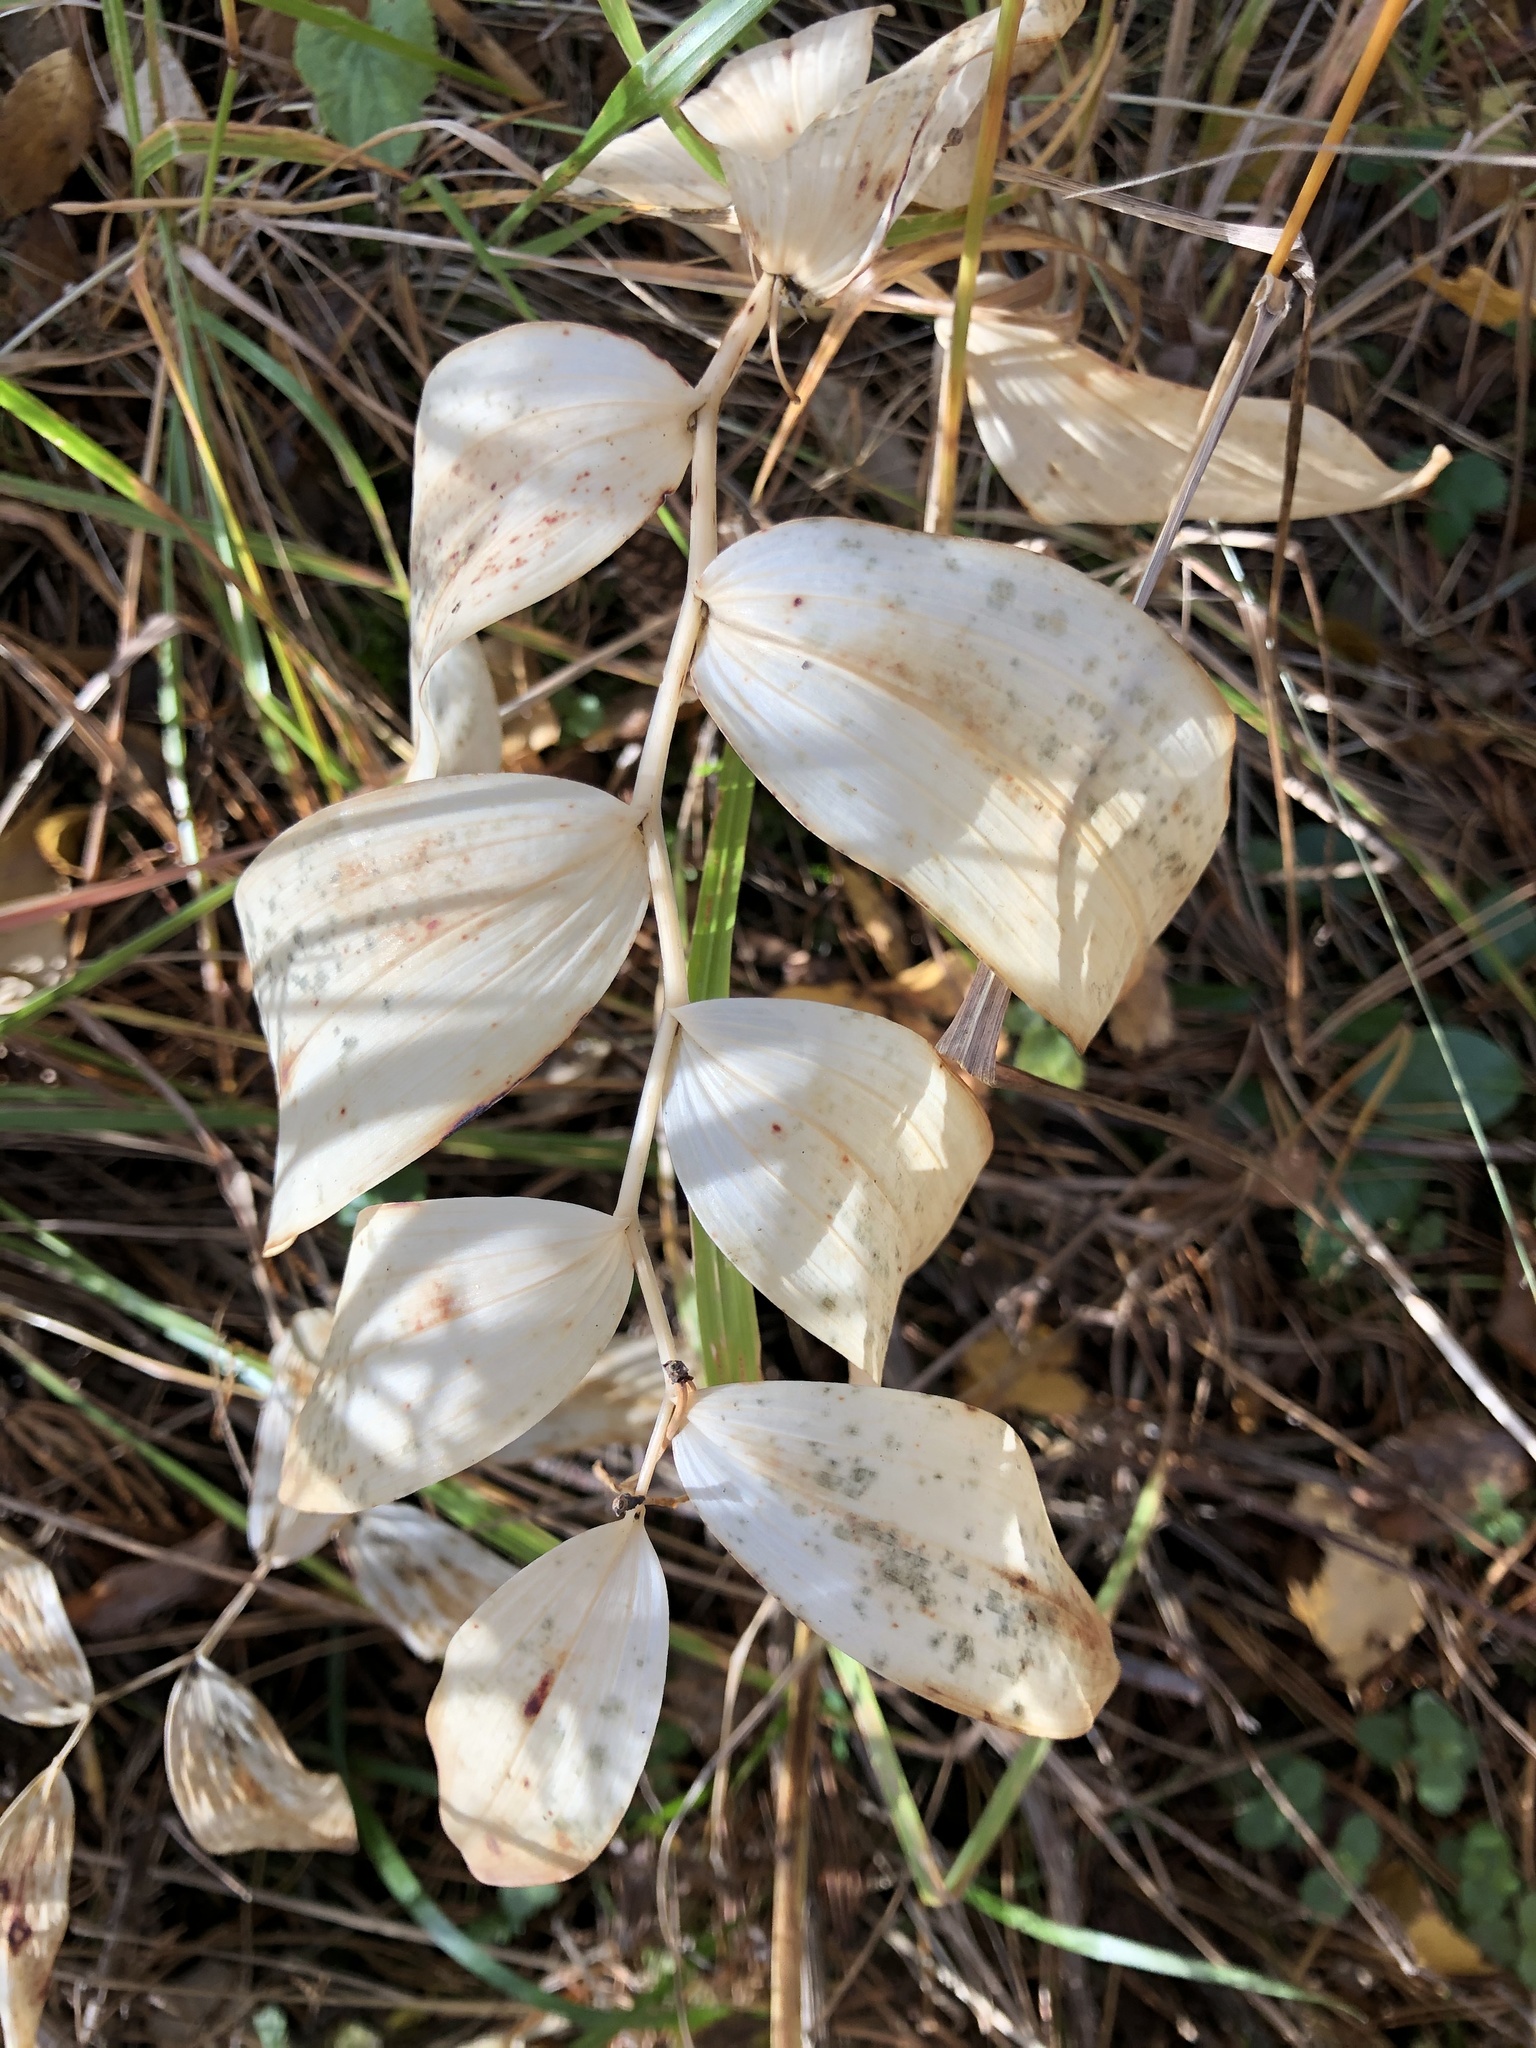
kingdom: Plantae
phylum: Tracheophyta
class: Liliopsida
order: Asparagales
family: Asparagaceae
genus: Polygonatum
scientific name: Polygonatum odoratum
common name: Angular solomon's-seal
